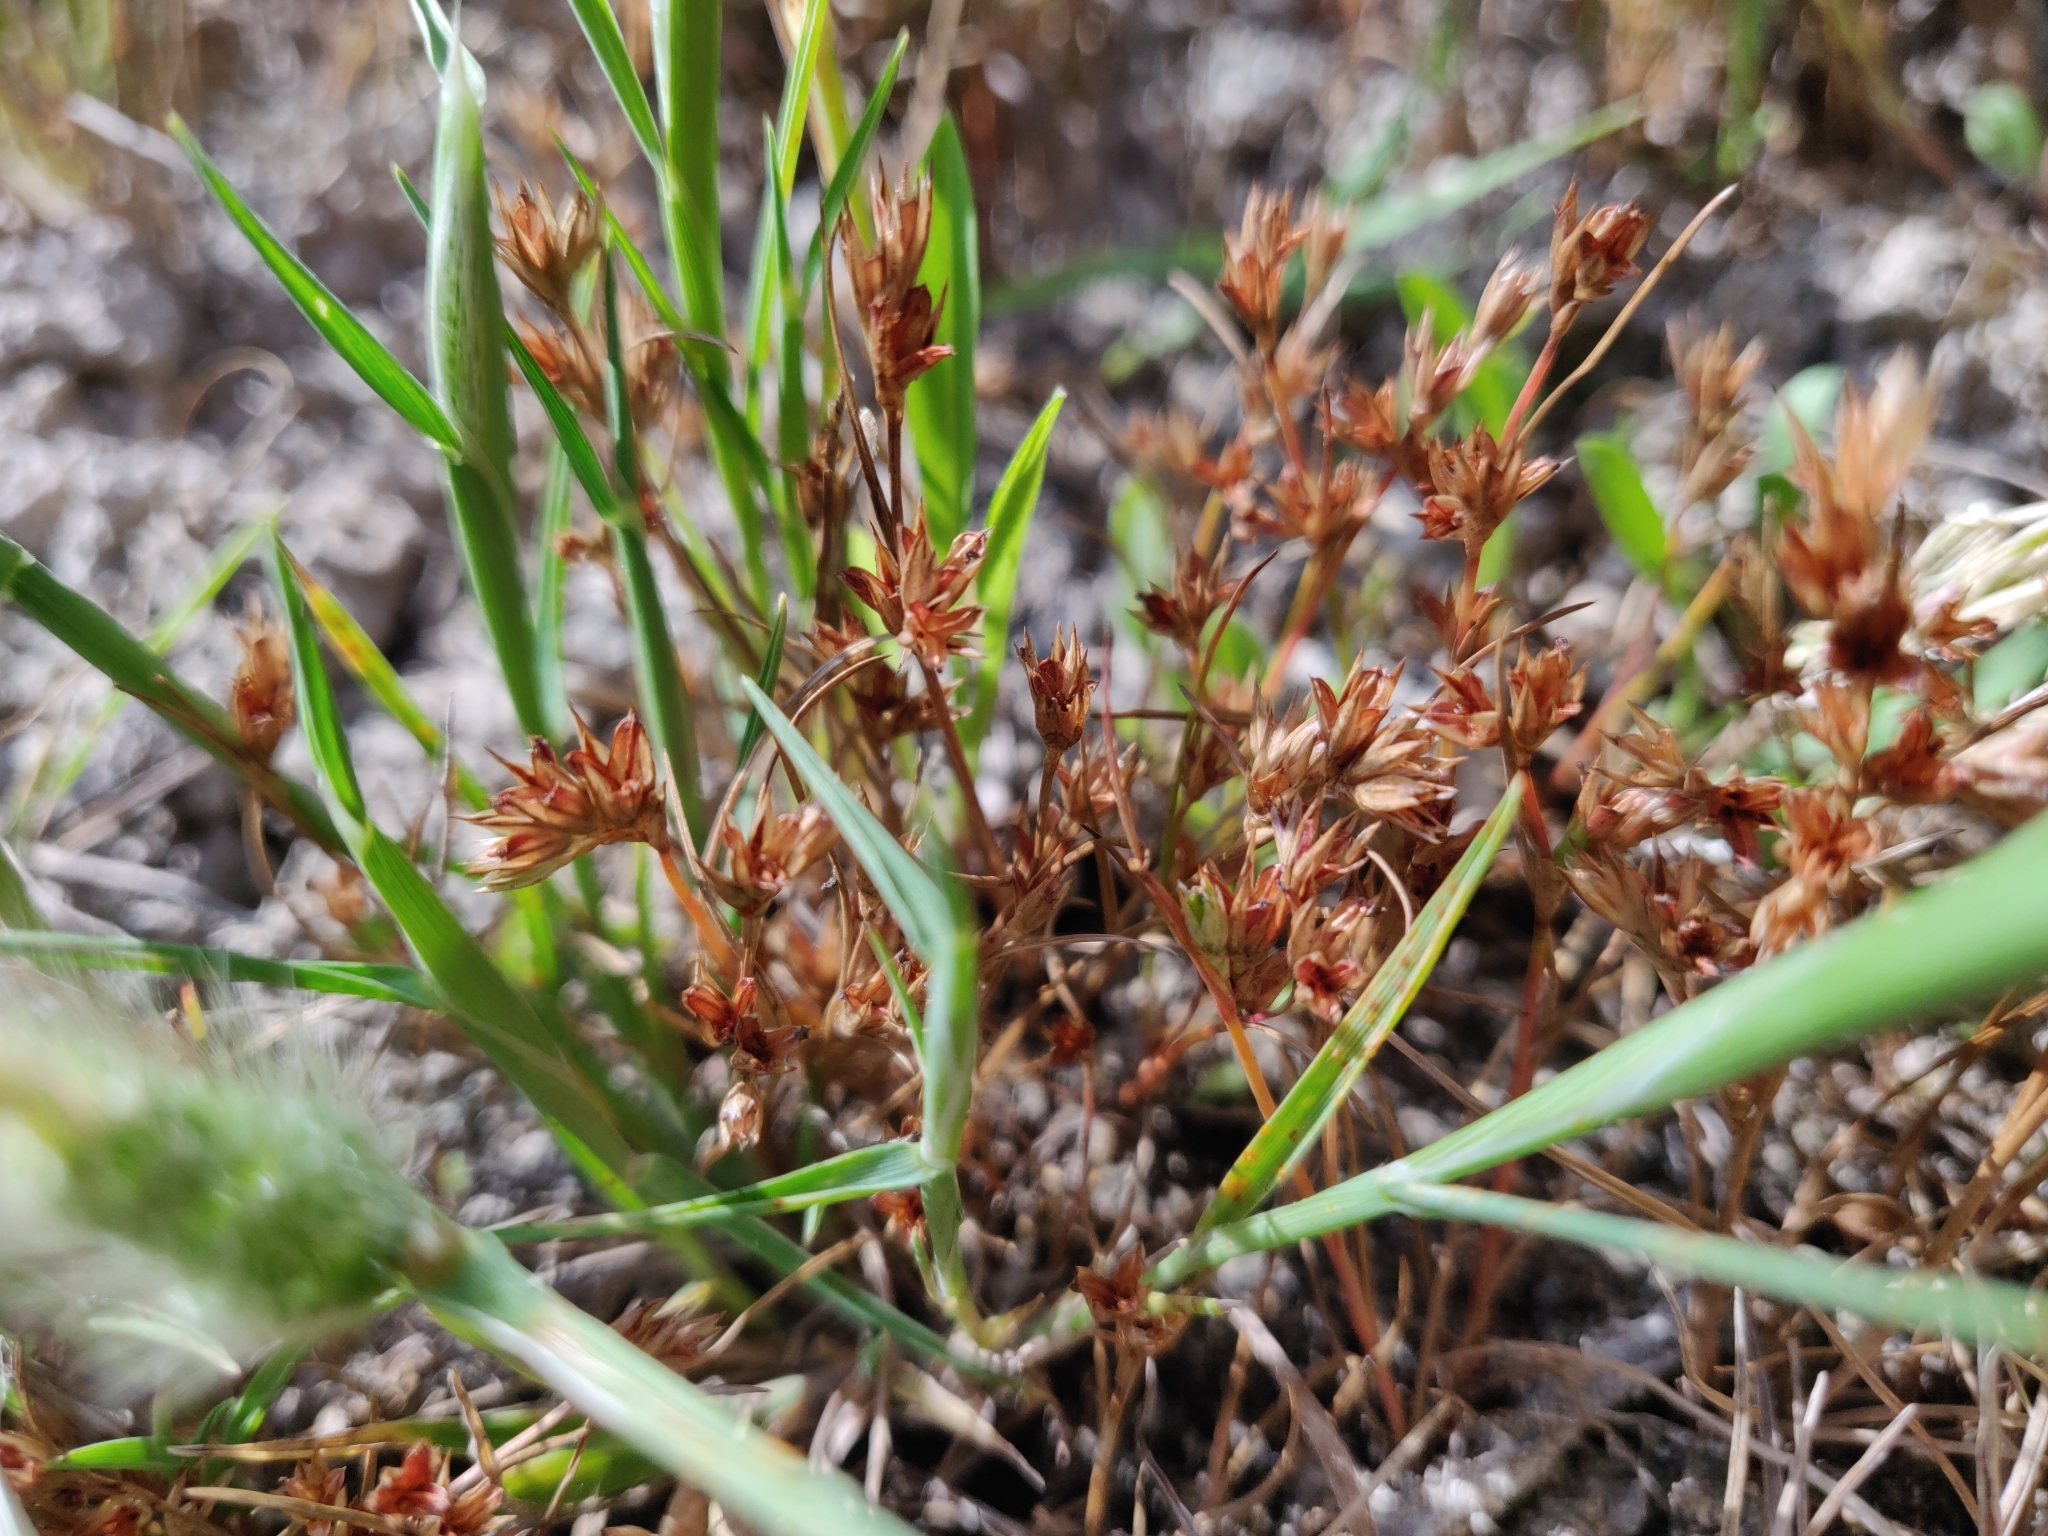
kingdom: Plantae
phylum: Tracheophyta
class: Liliopsida
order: Poales
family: Juncaceae
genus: Juncus
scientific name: Juncus hybridus
